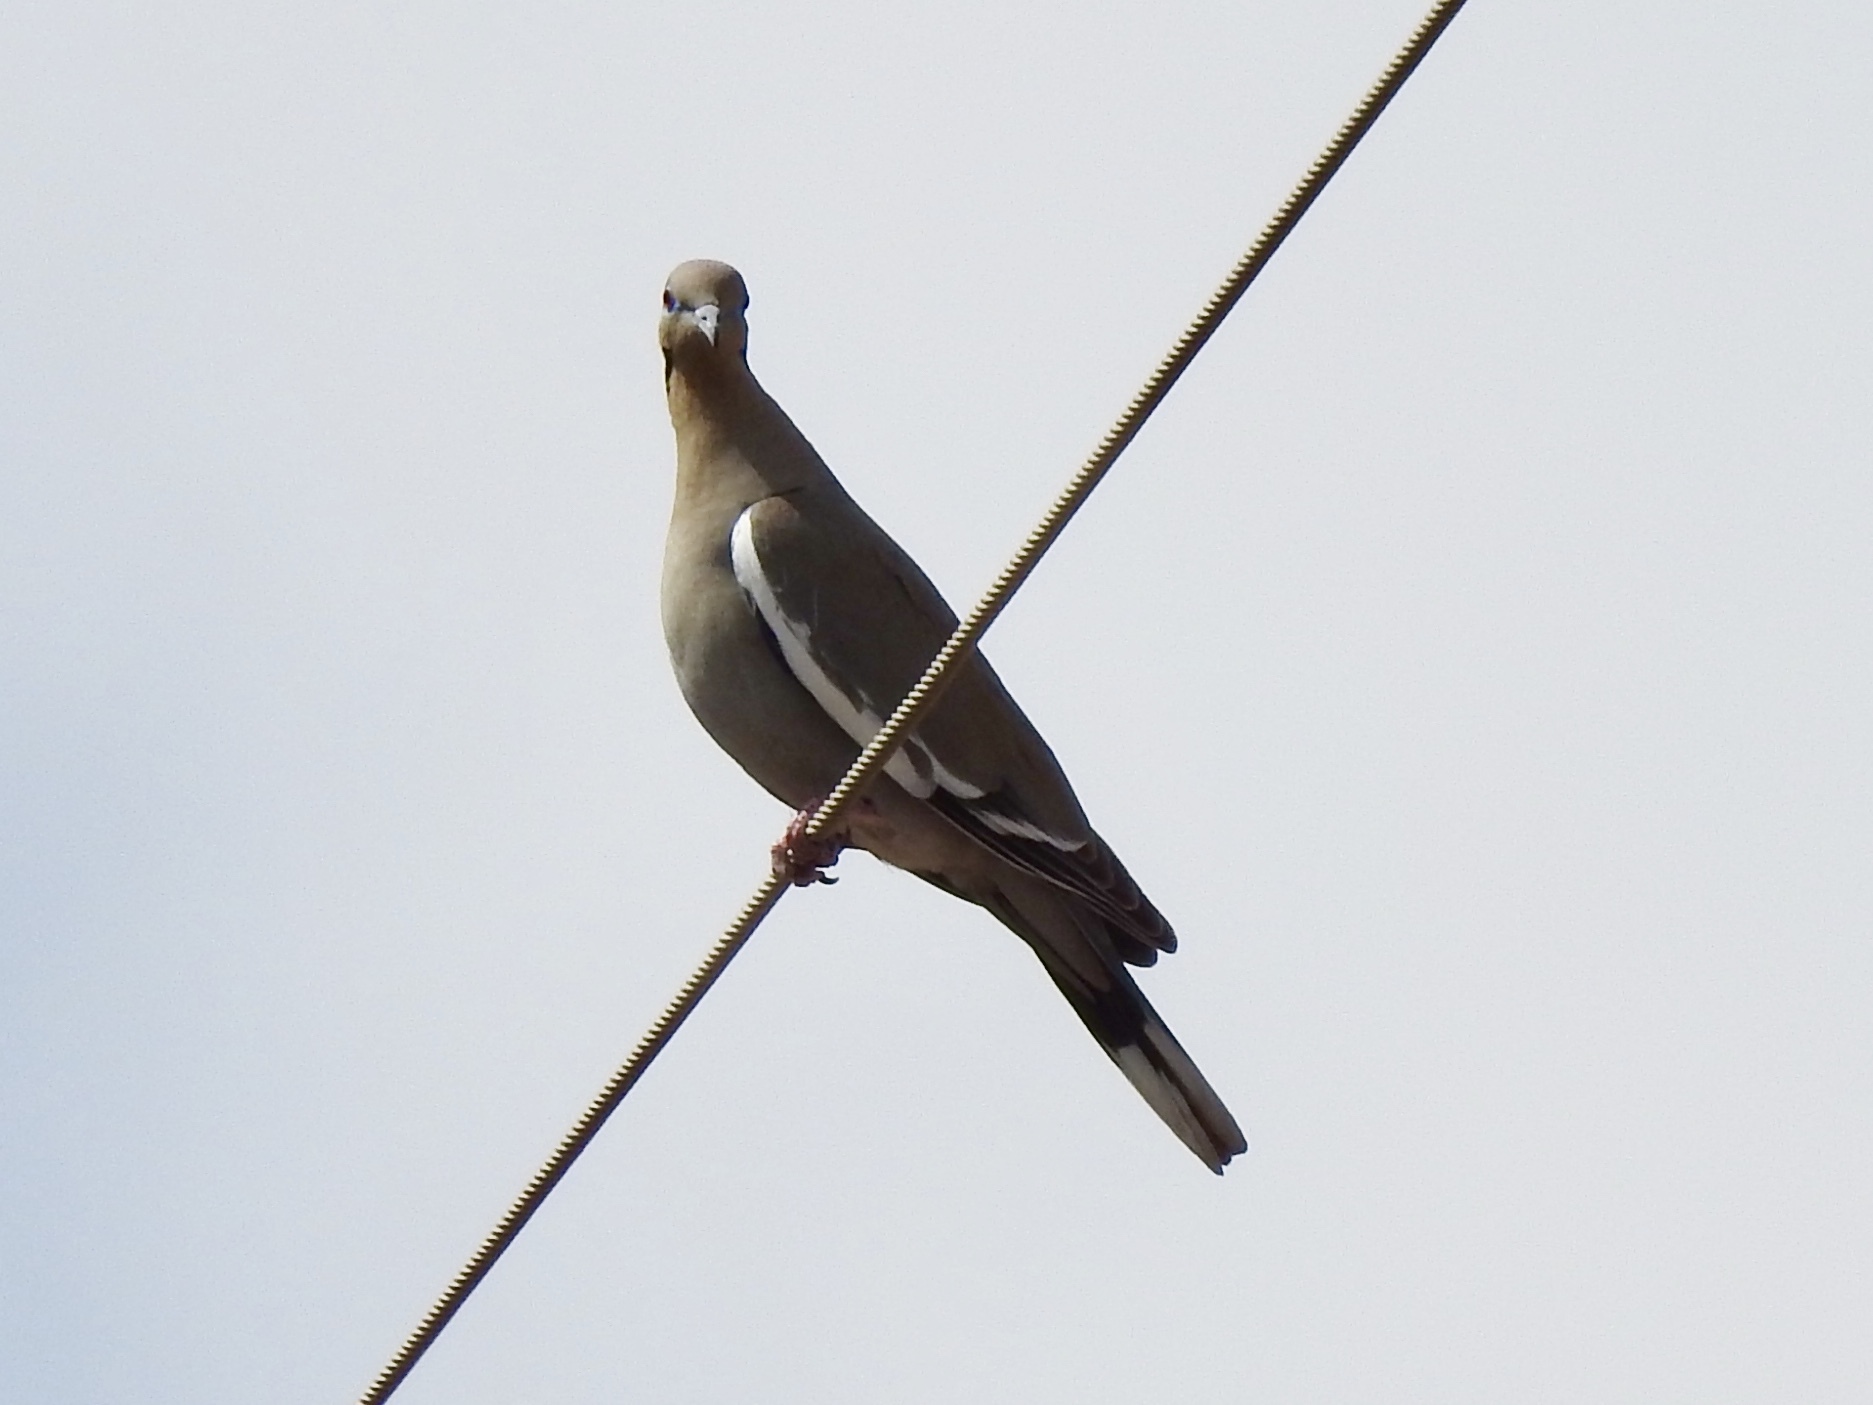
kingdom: Animalia
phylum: Chordata
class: Aves
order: Columbiformes
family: Columbidae
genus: Zenaida
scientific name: Zenaida asiatica
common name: White-winged dove
